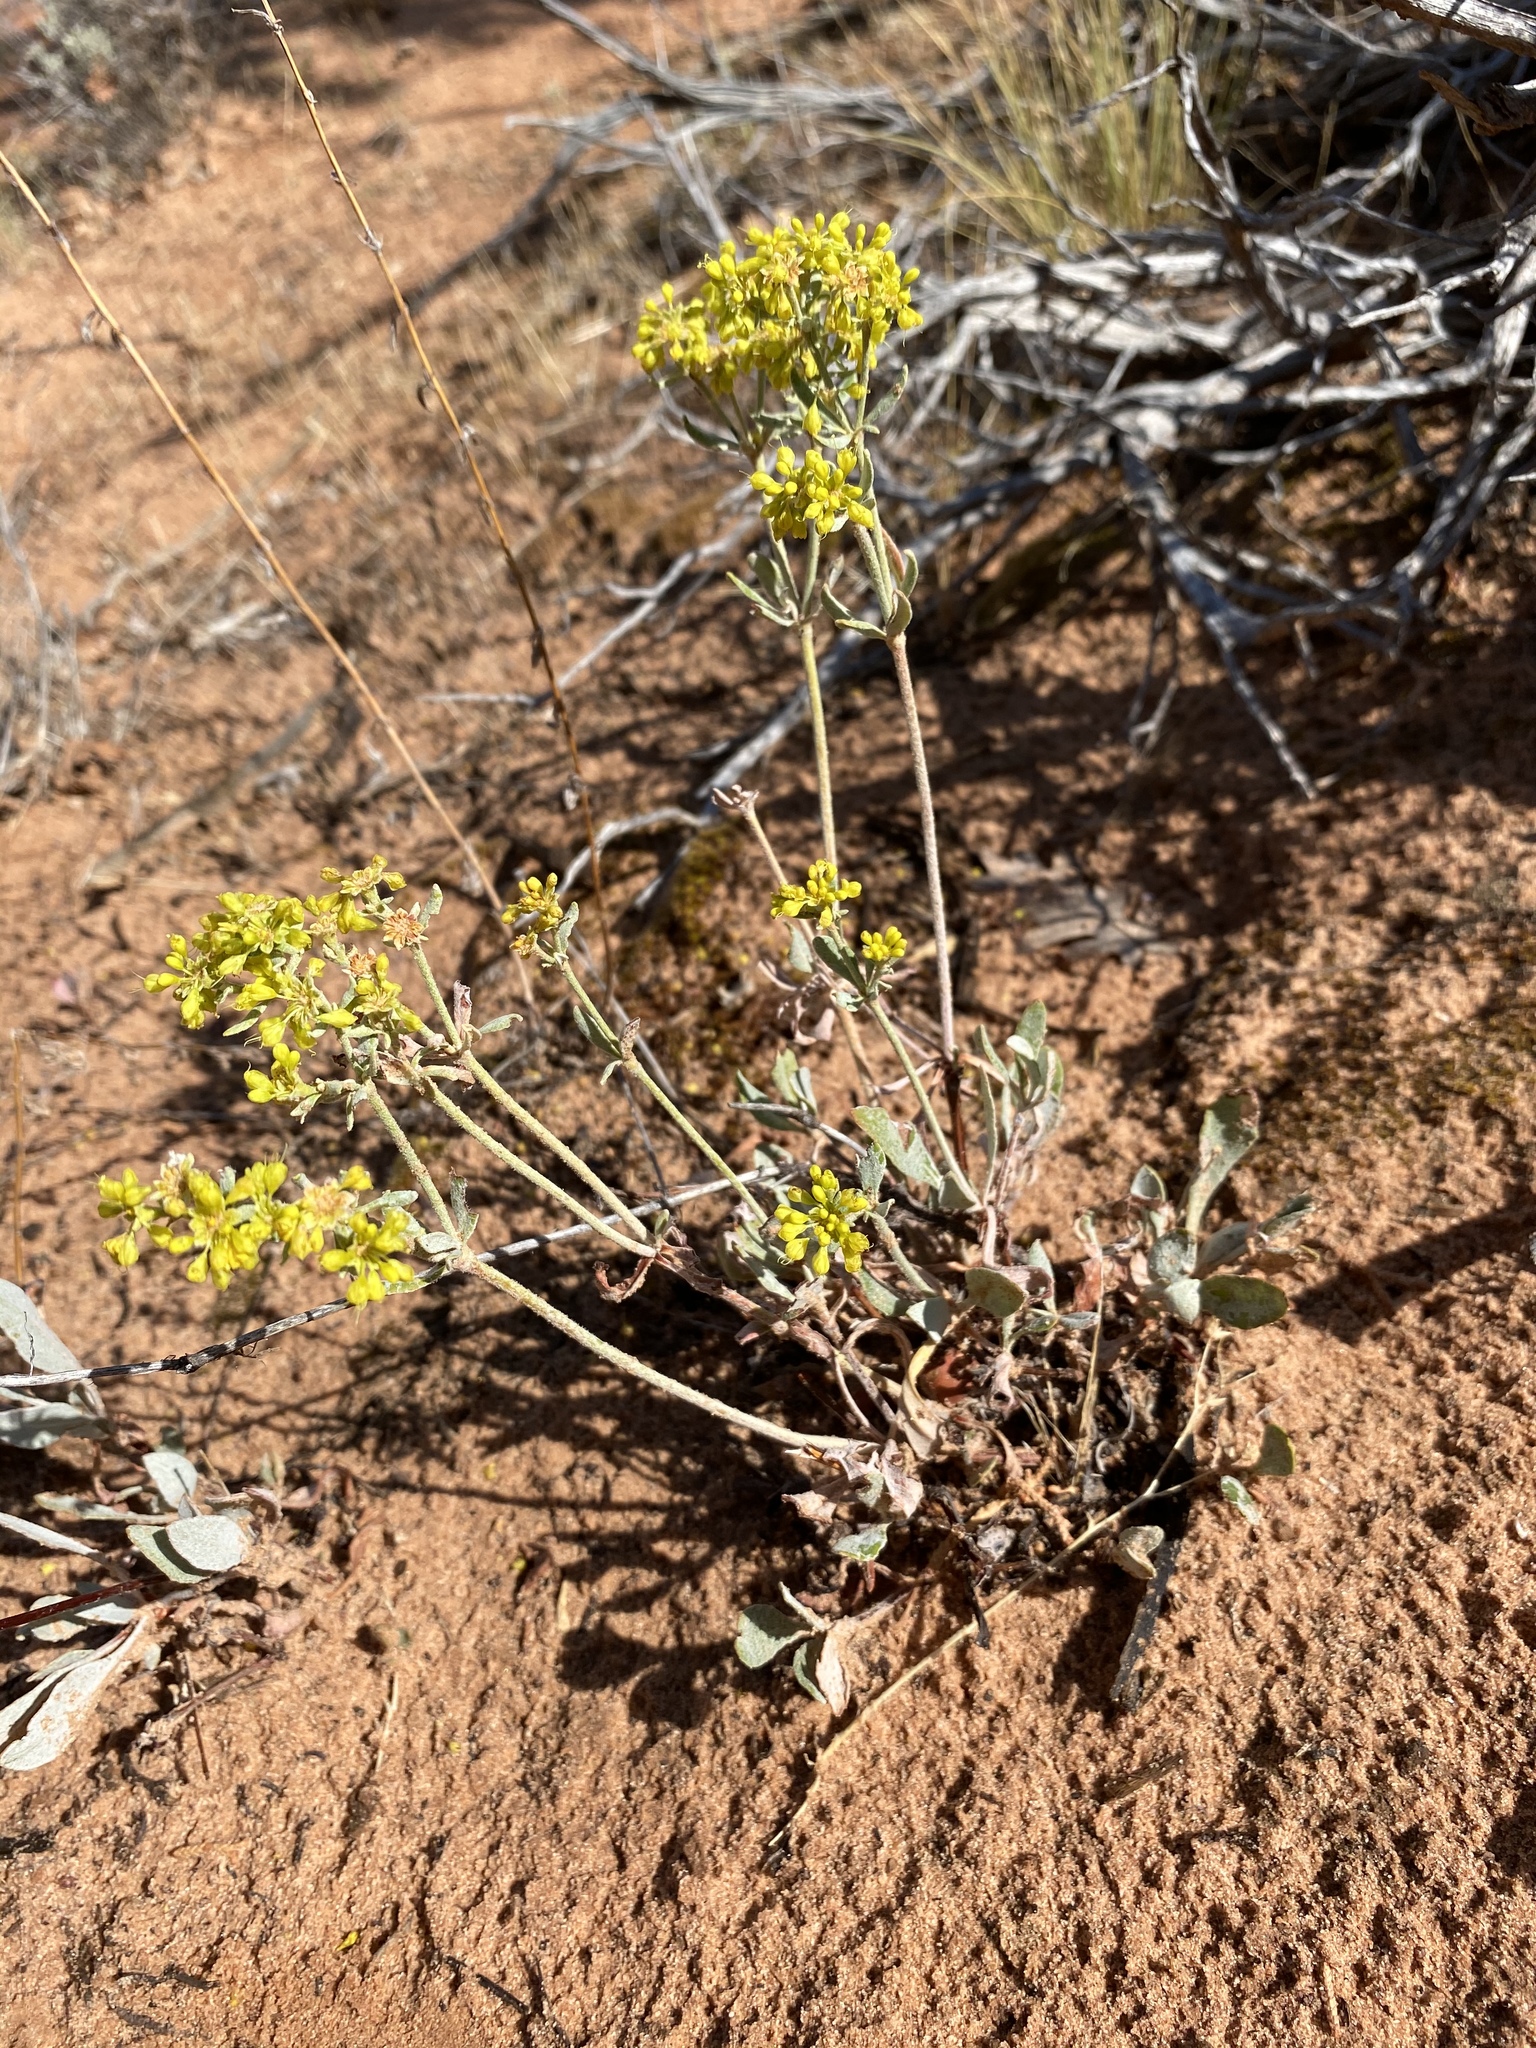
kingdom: Plantae
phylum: Tracheophyta
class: Magnoliopsida
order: Caryophyllales
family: Polygonaceae
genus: Eriogonum
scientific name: Eriogonum umbellatum
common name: Sulfur-buckwheat
